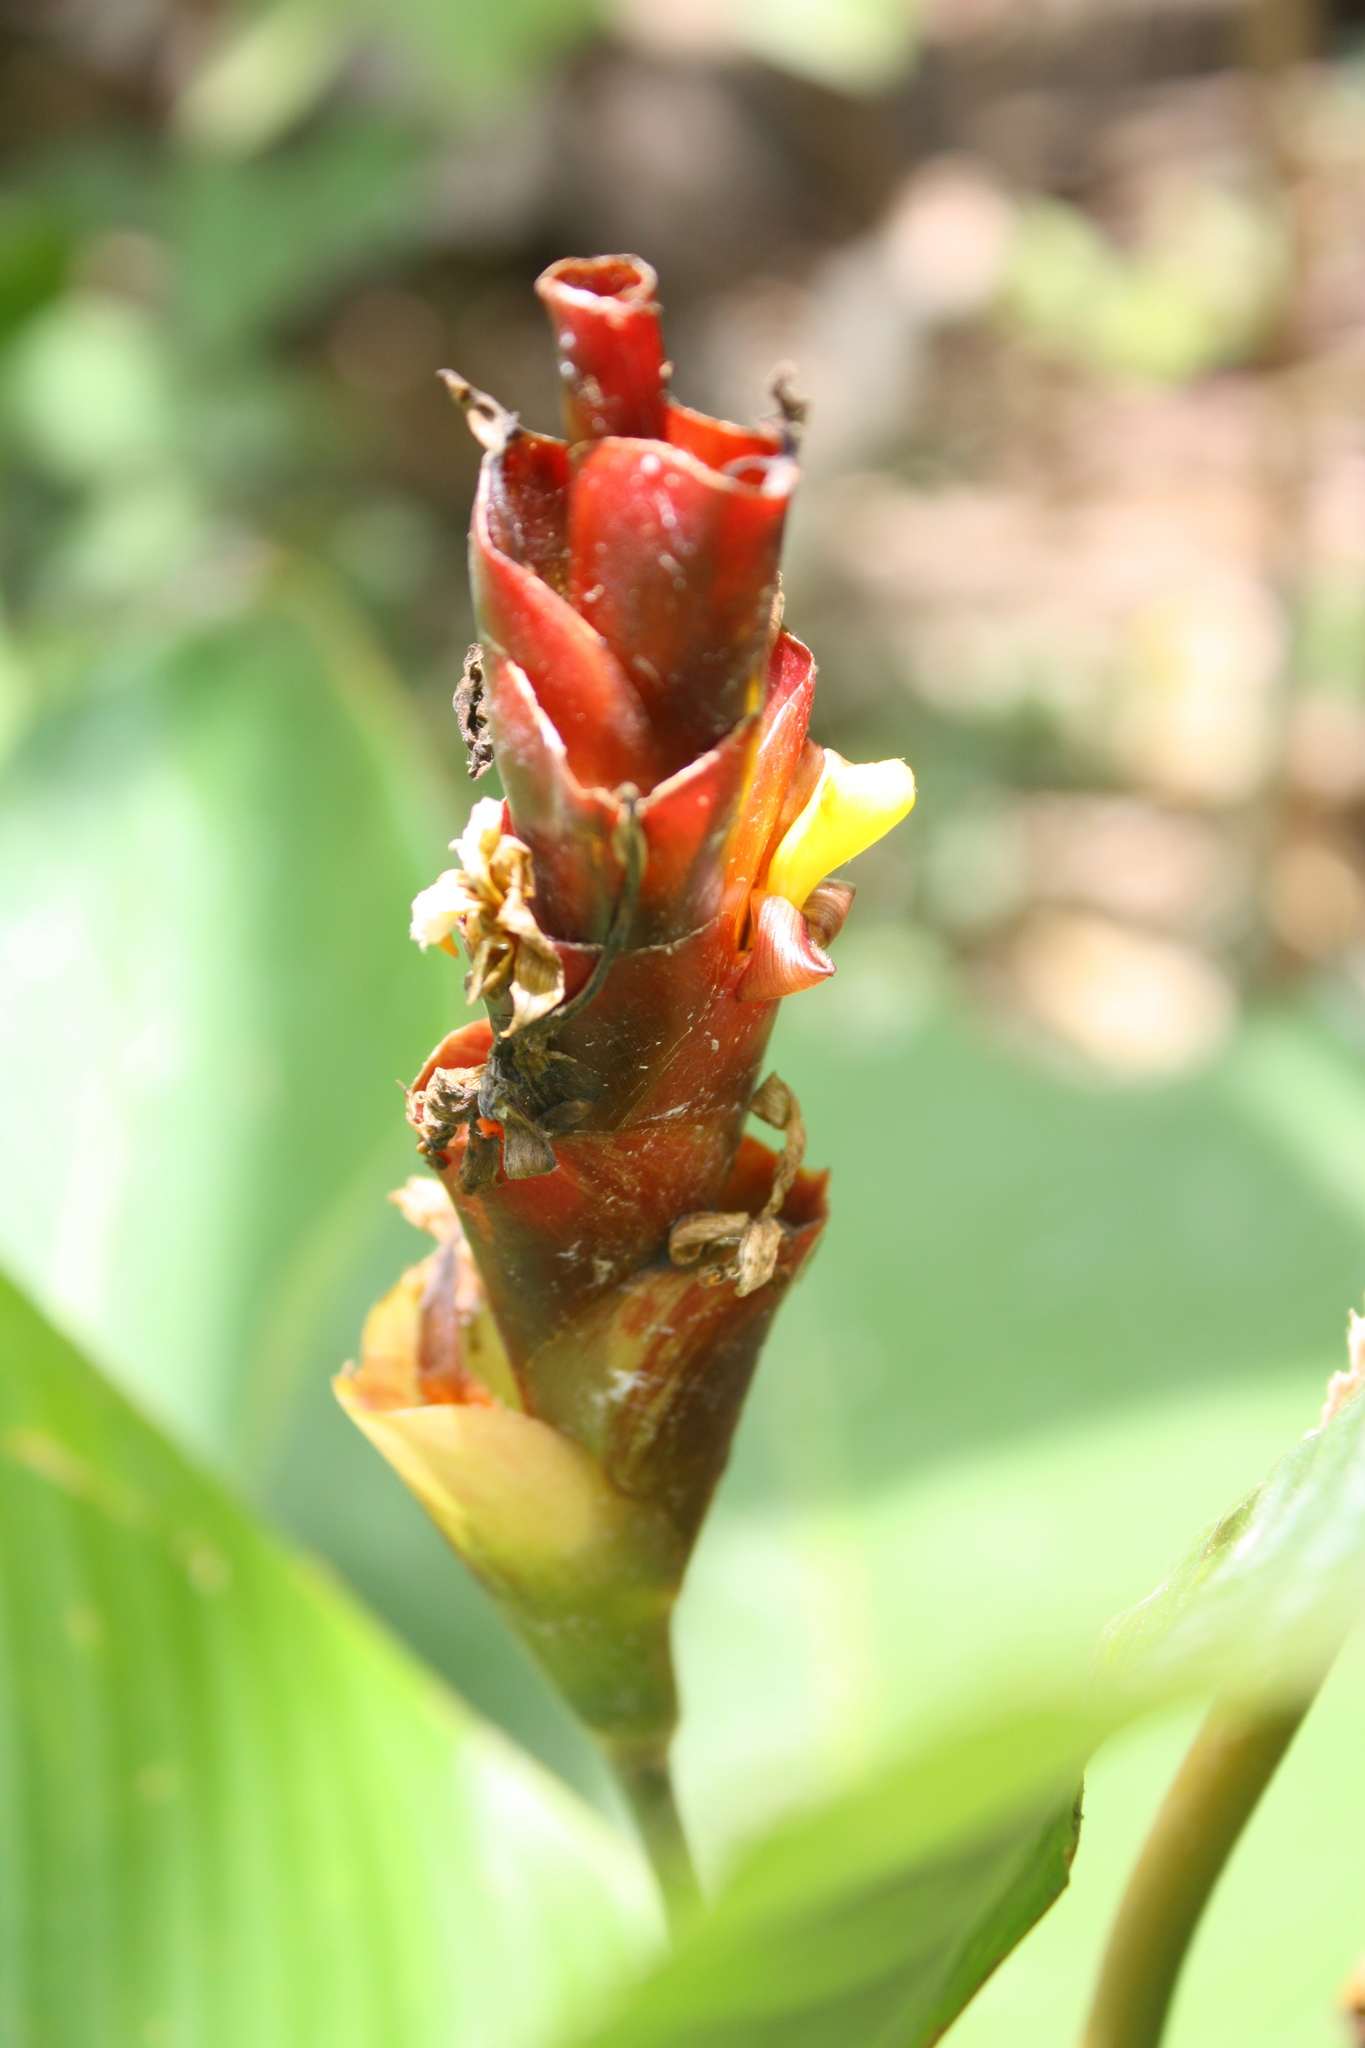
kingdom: Plantae
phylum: Tracheophyta
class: Liliopsida
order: Zingiberales
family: Marantaceae
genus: Calathea
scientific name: Calathea lutea
